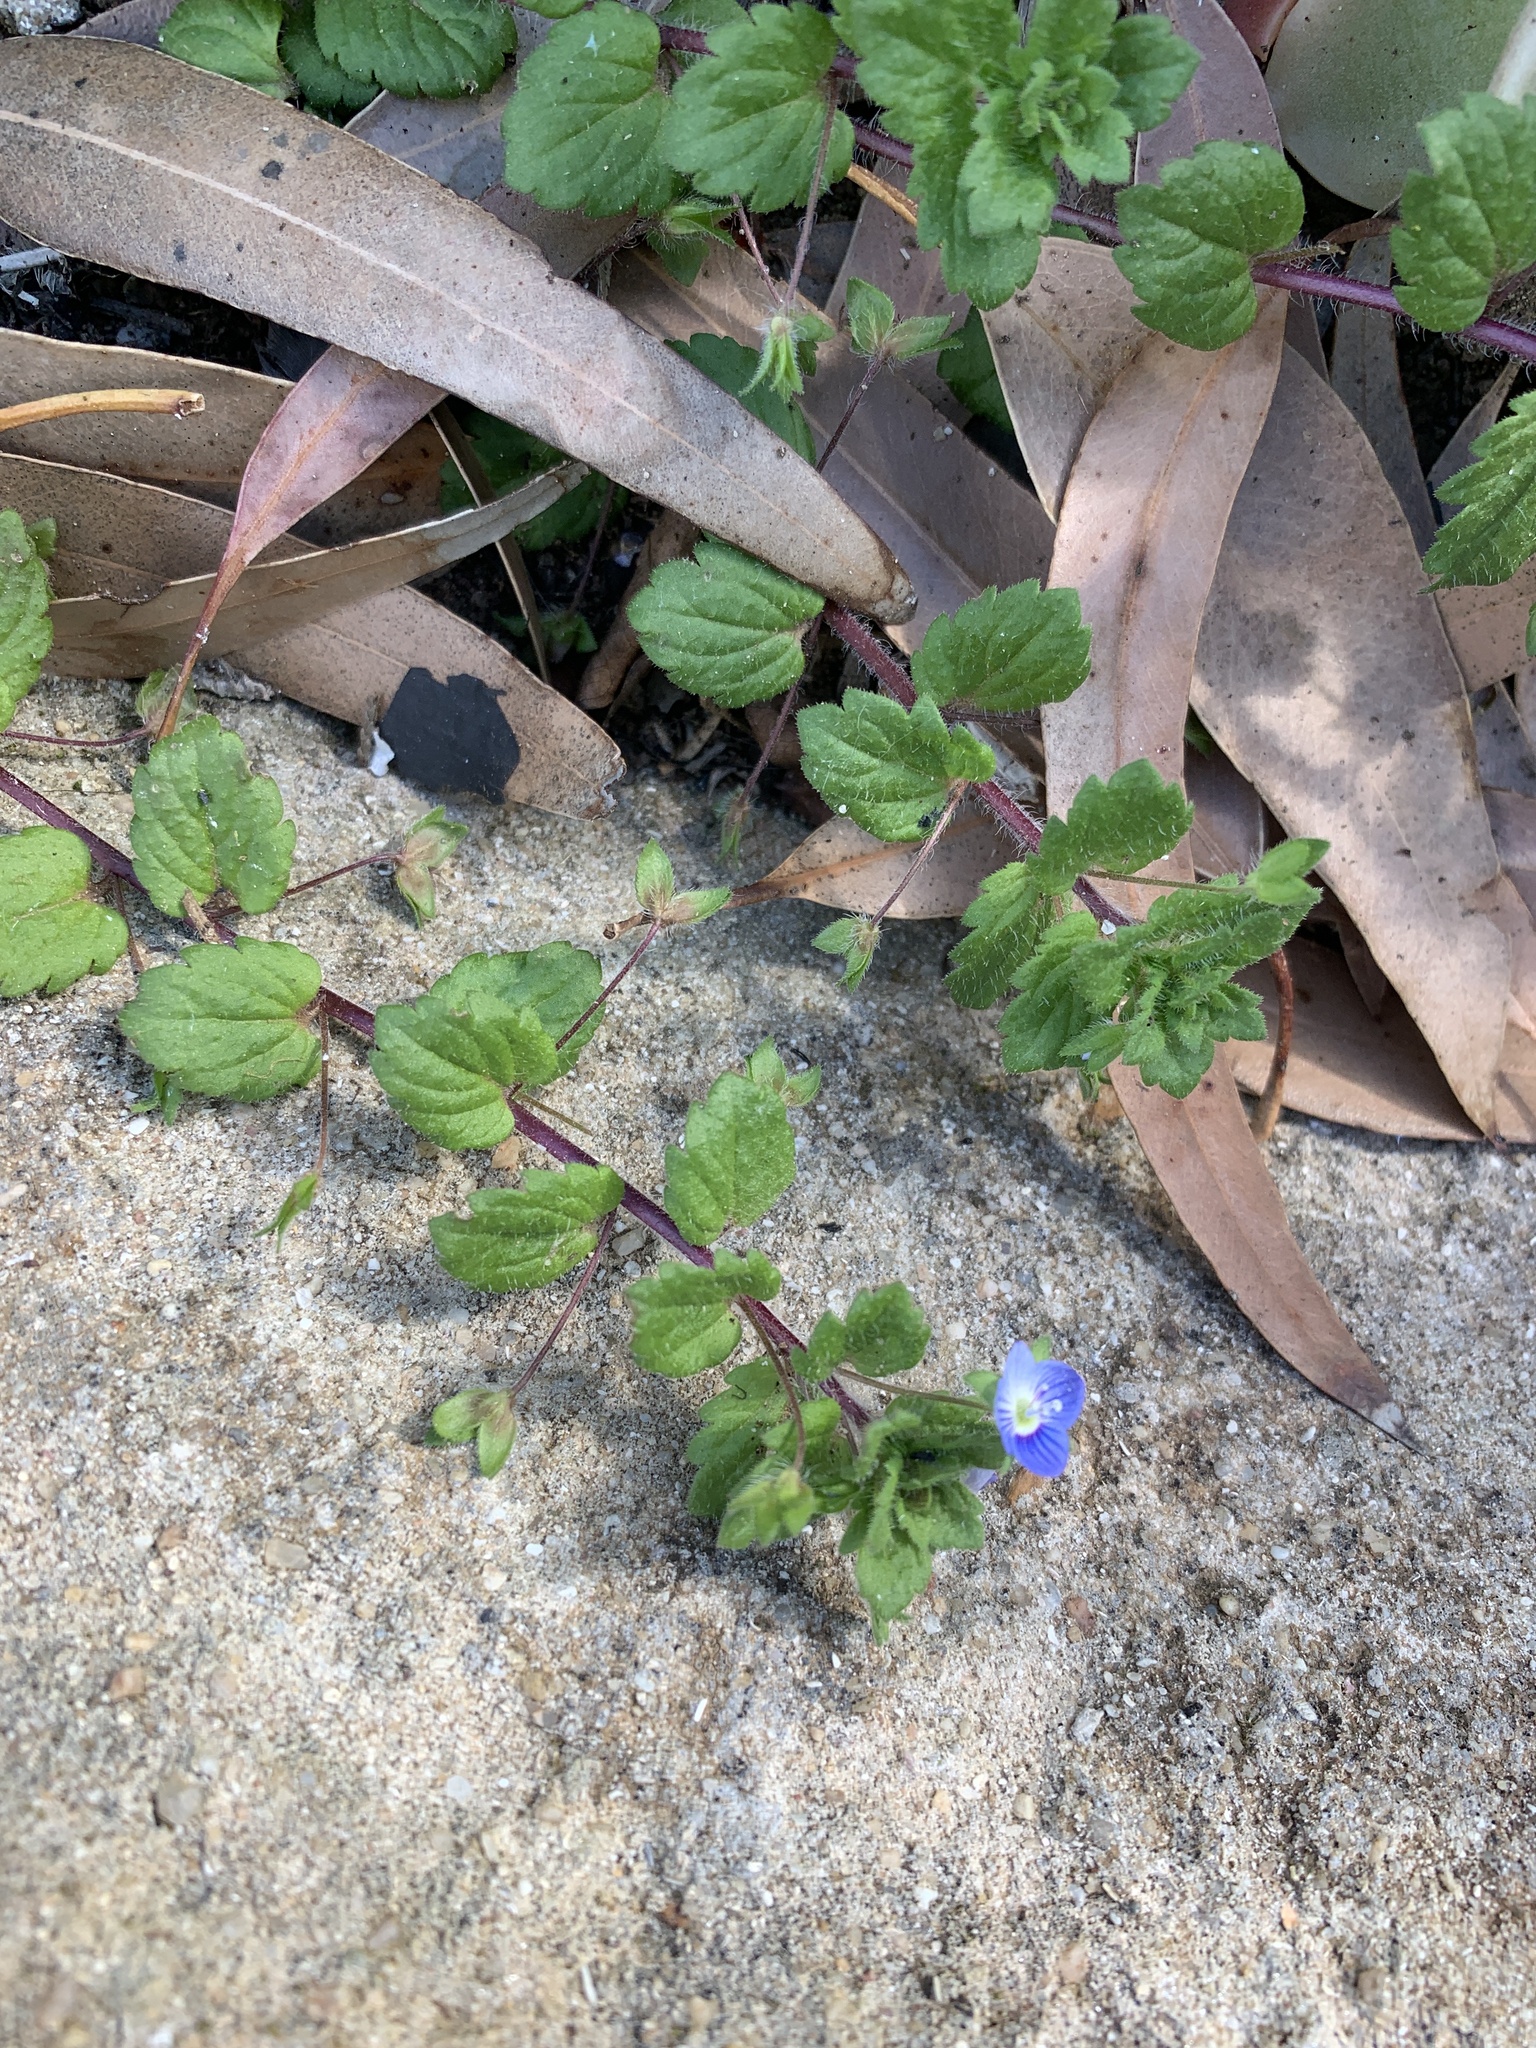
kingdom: Plantae
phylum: Tracheophyta
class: Magnoliopsida
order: Lamiales
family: Plantaginaceae
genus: Veronica
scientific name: Veronica persica
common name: Common field-speedwell
